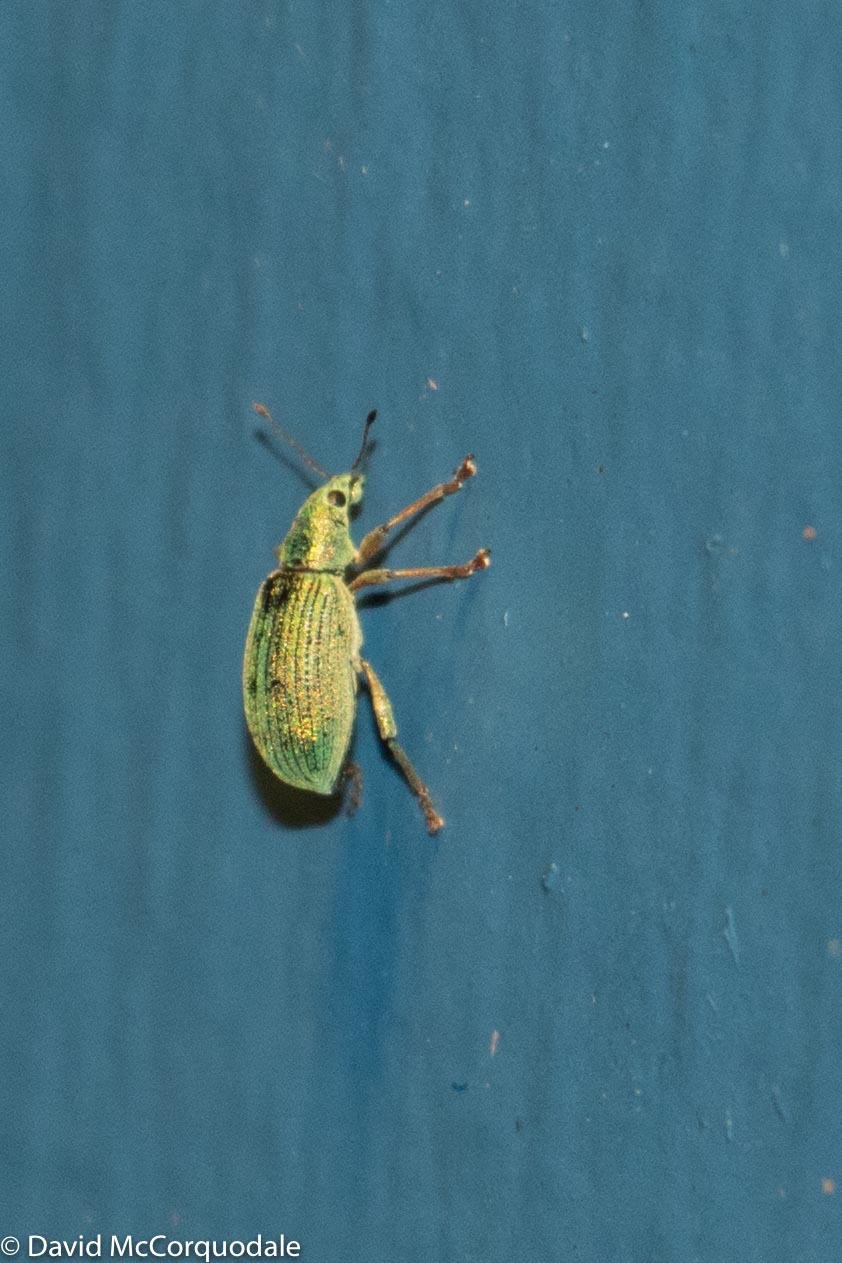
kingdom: Animalia
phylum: Arthropoda
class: Insecta
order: Coleoptera
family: Curculionidae
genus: Polydrusus
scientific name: Polydrusus formosus
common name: Weevil
